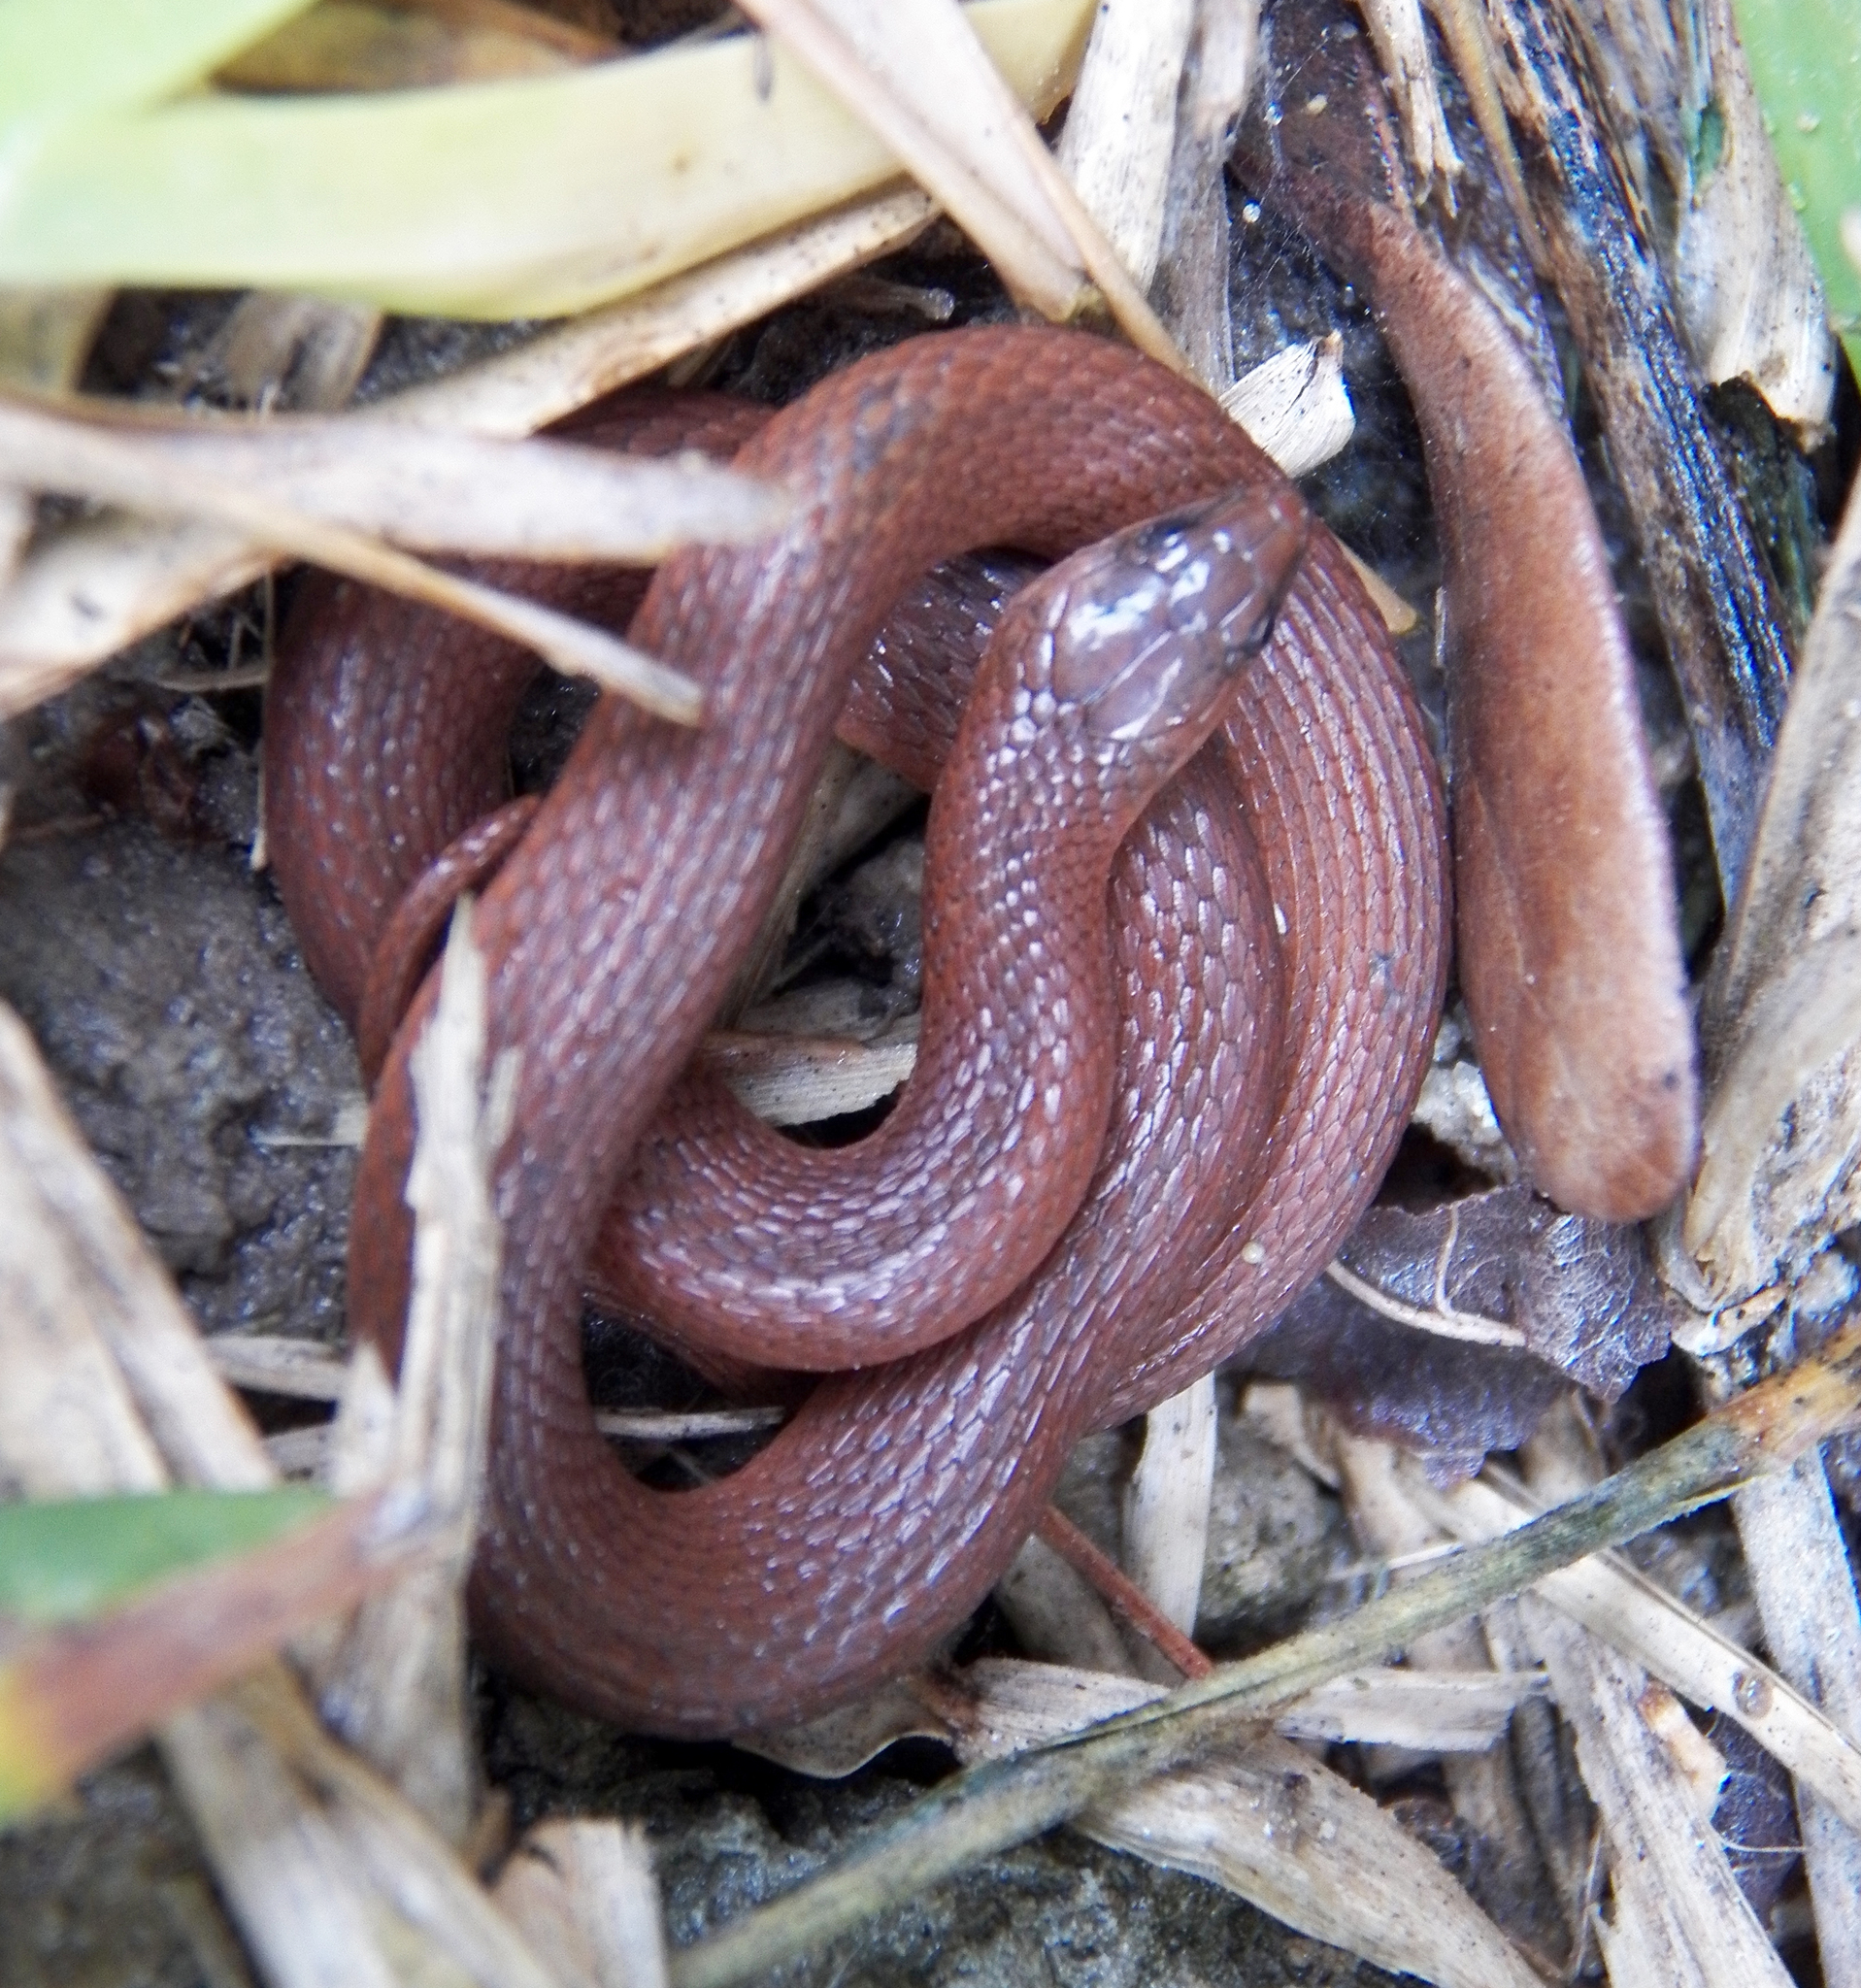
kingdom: Animalia
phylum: Chordata
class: Squamata
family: Colubridae
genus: Haldea
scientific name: Haldea striatula
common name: Rough earth snake
